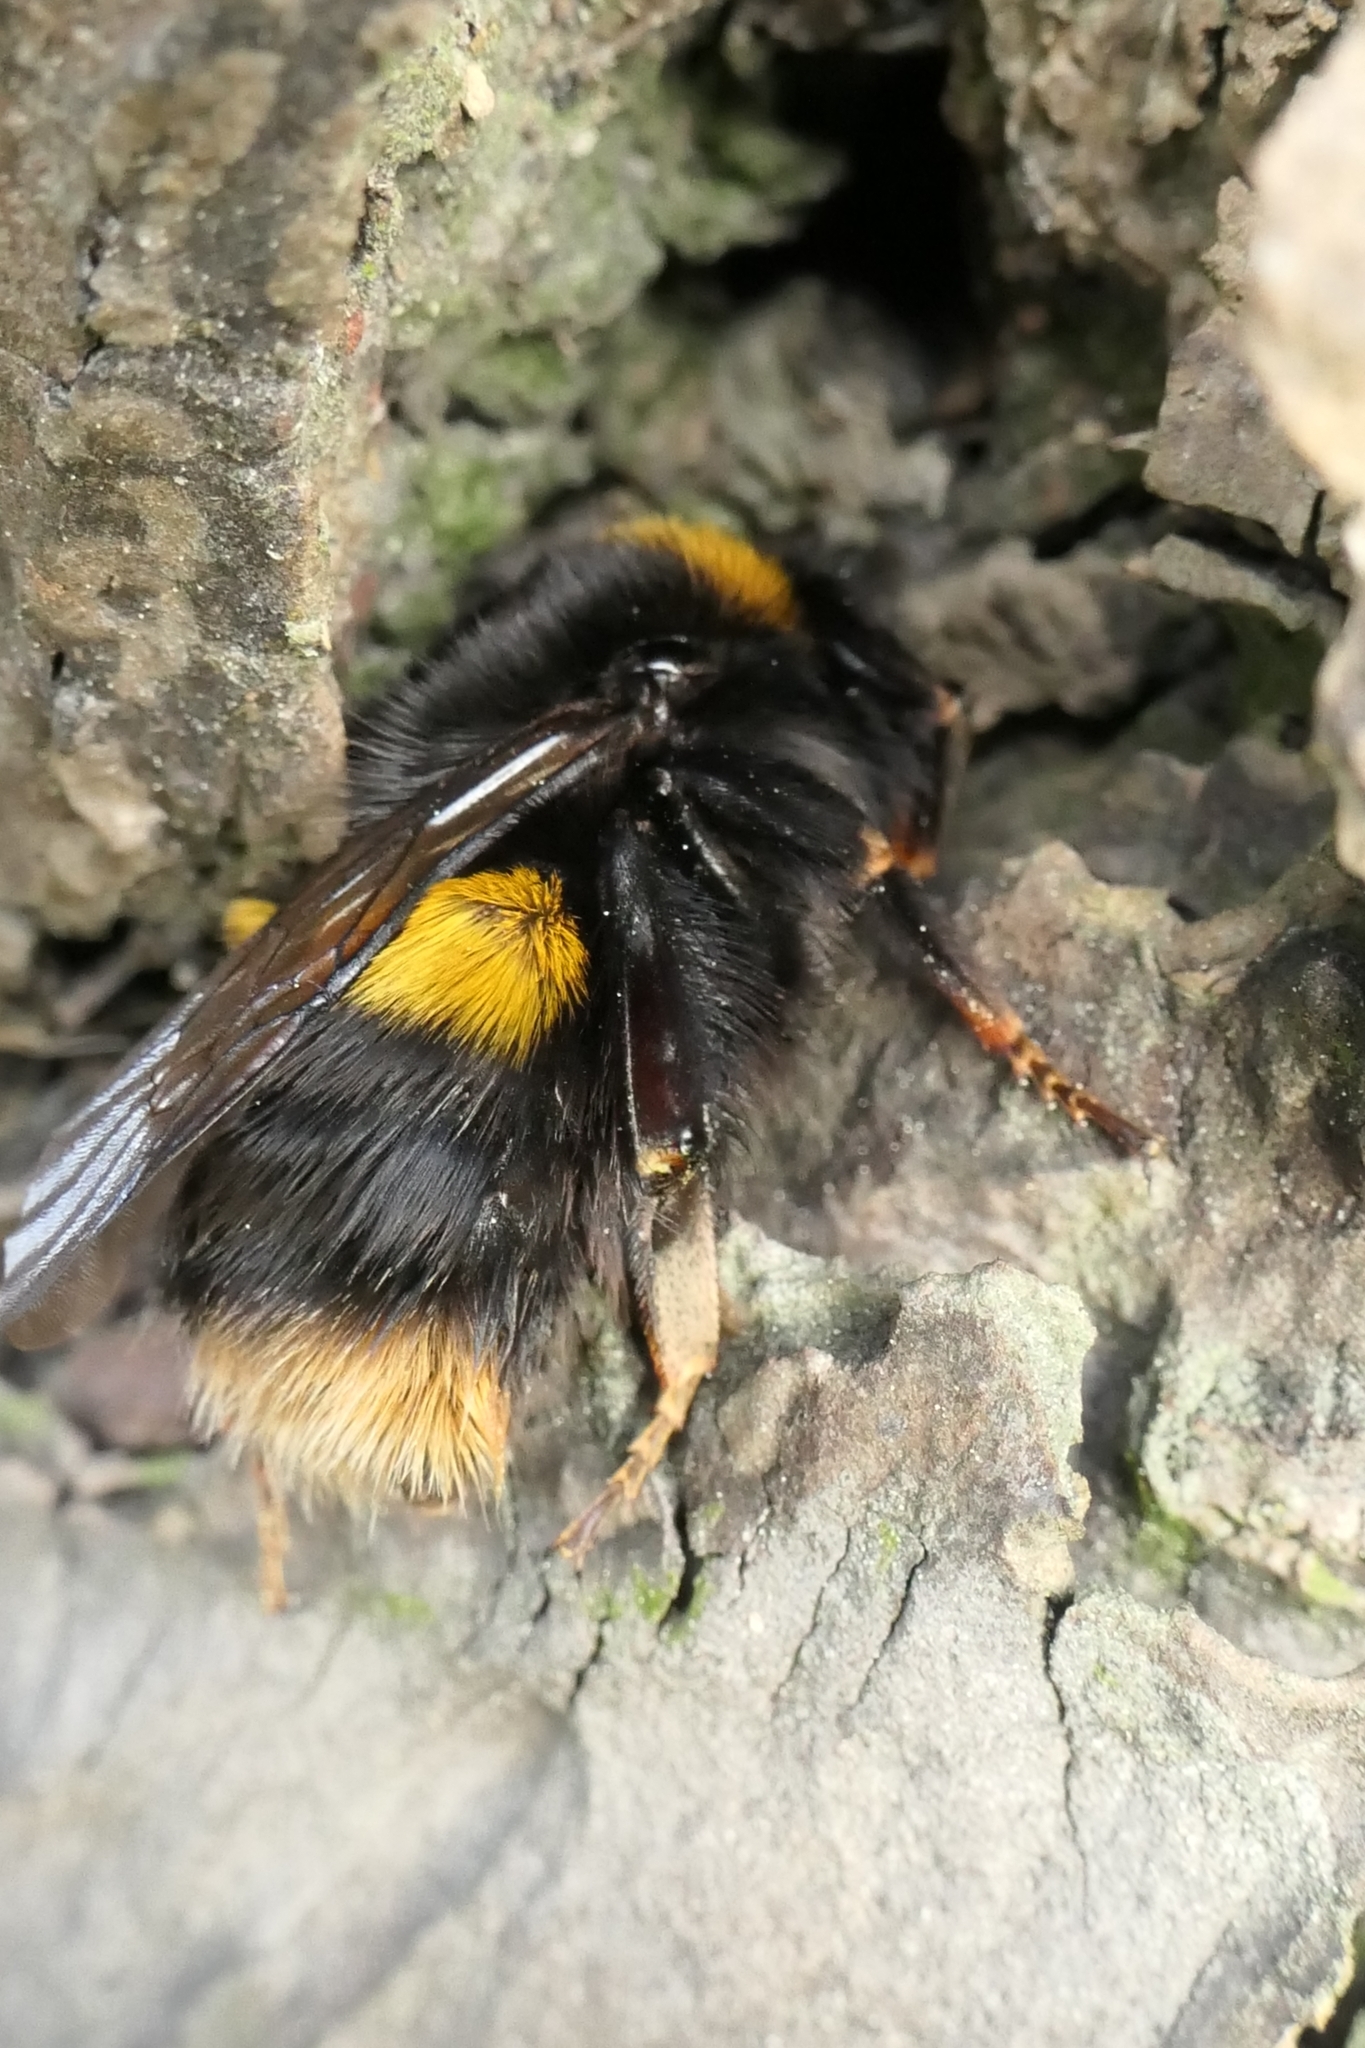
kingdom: Animalia
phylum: Arthropoda
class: Insecta
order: Hymenoptera
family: Apidae
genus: Bombus
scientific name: Bombus terrestris
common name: Buff-tailed bumblebee
